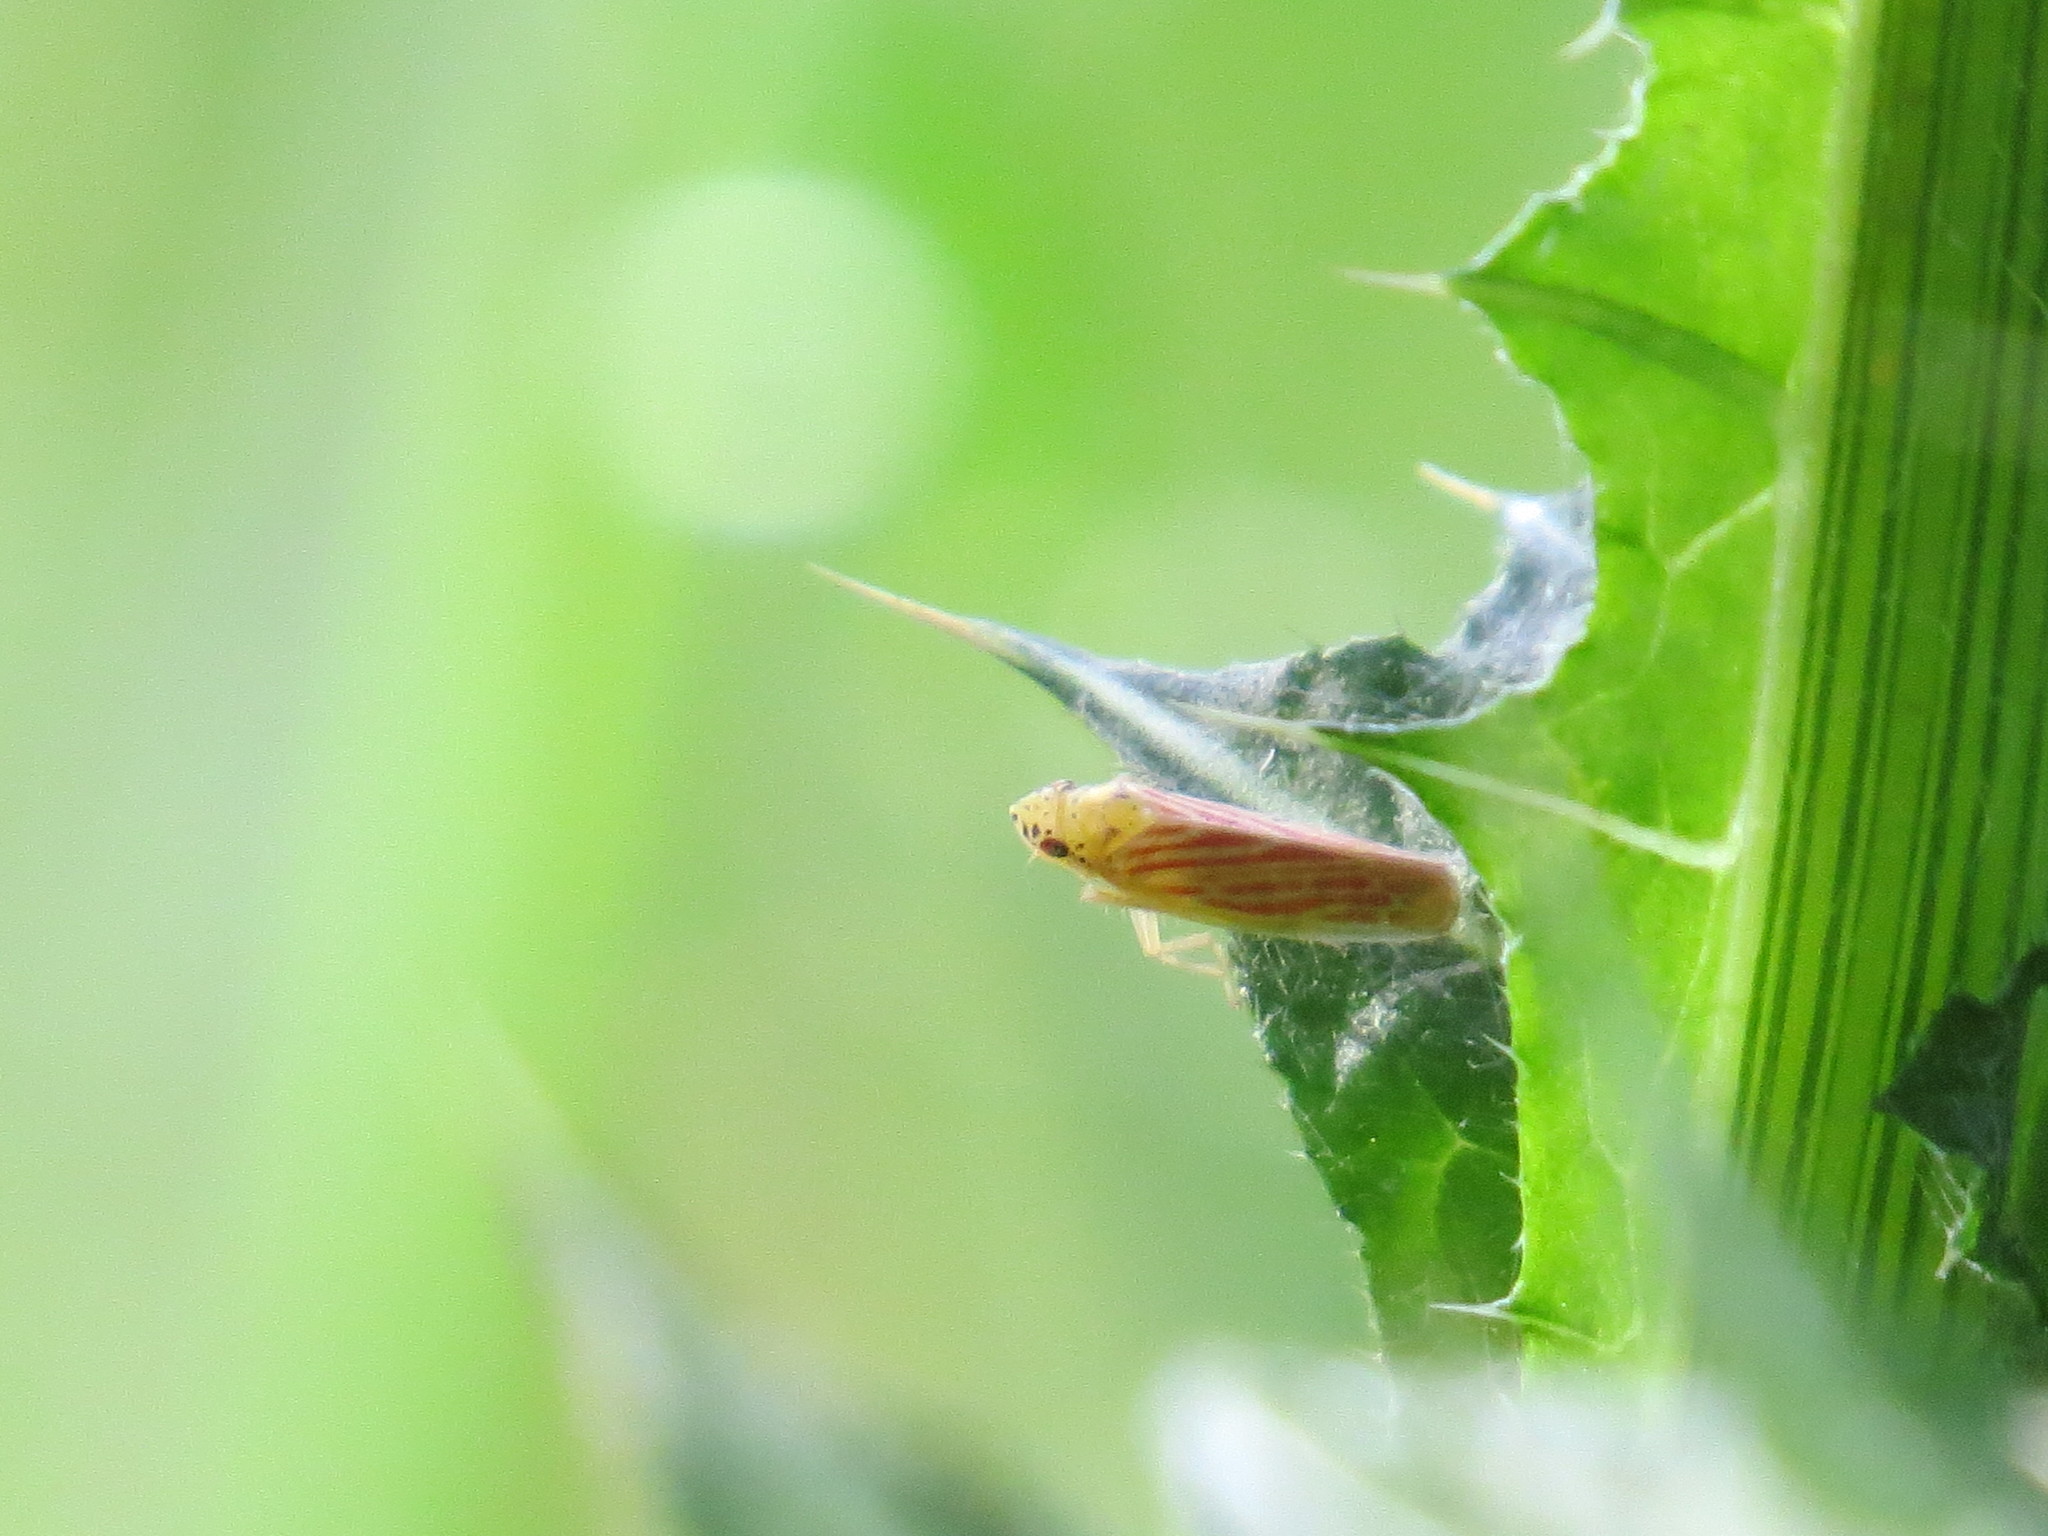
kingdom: Animalia
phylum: Arthropoda
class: Insecta
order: Hemiptera
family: Cicadellidae
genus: Pagaronia
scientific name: Pagaronia triunata
